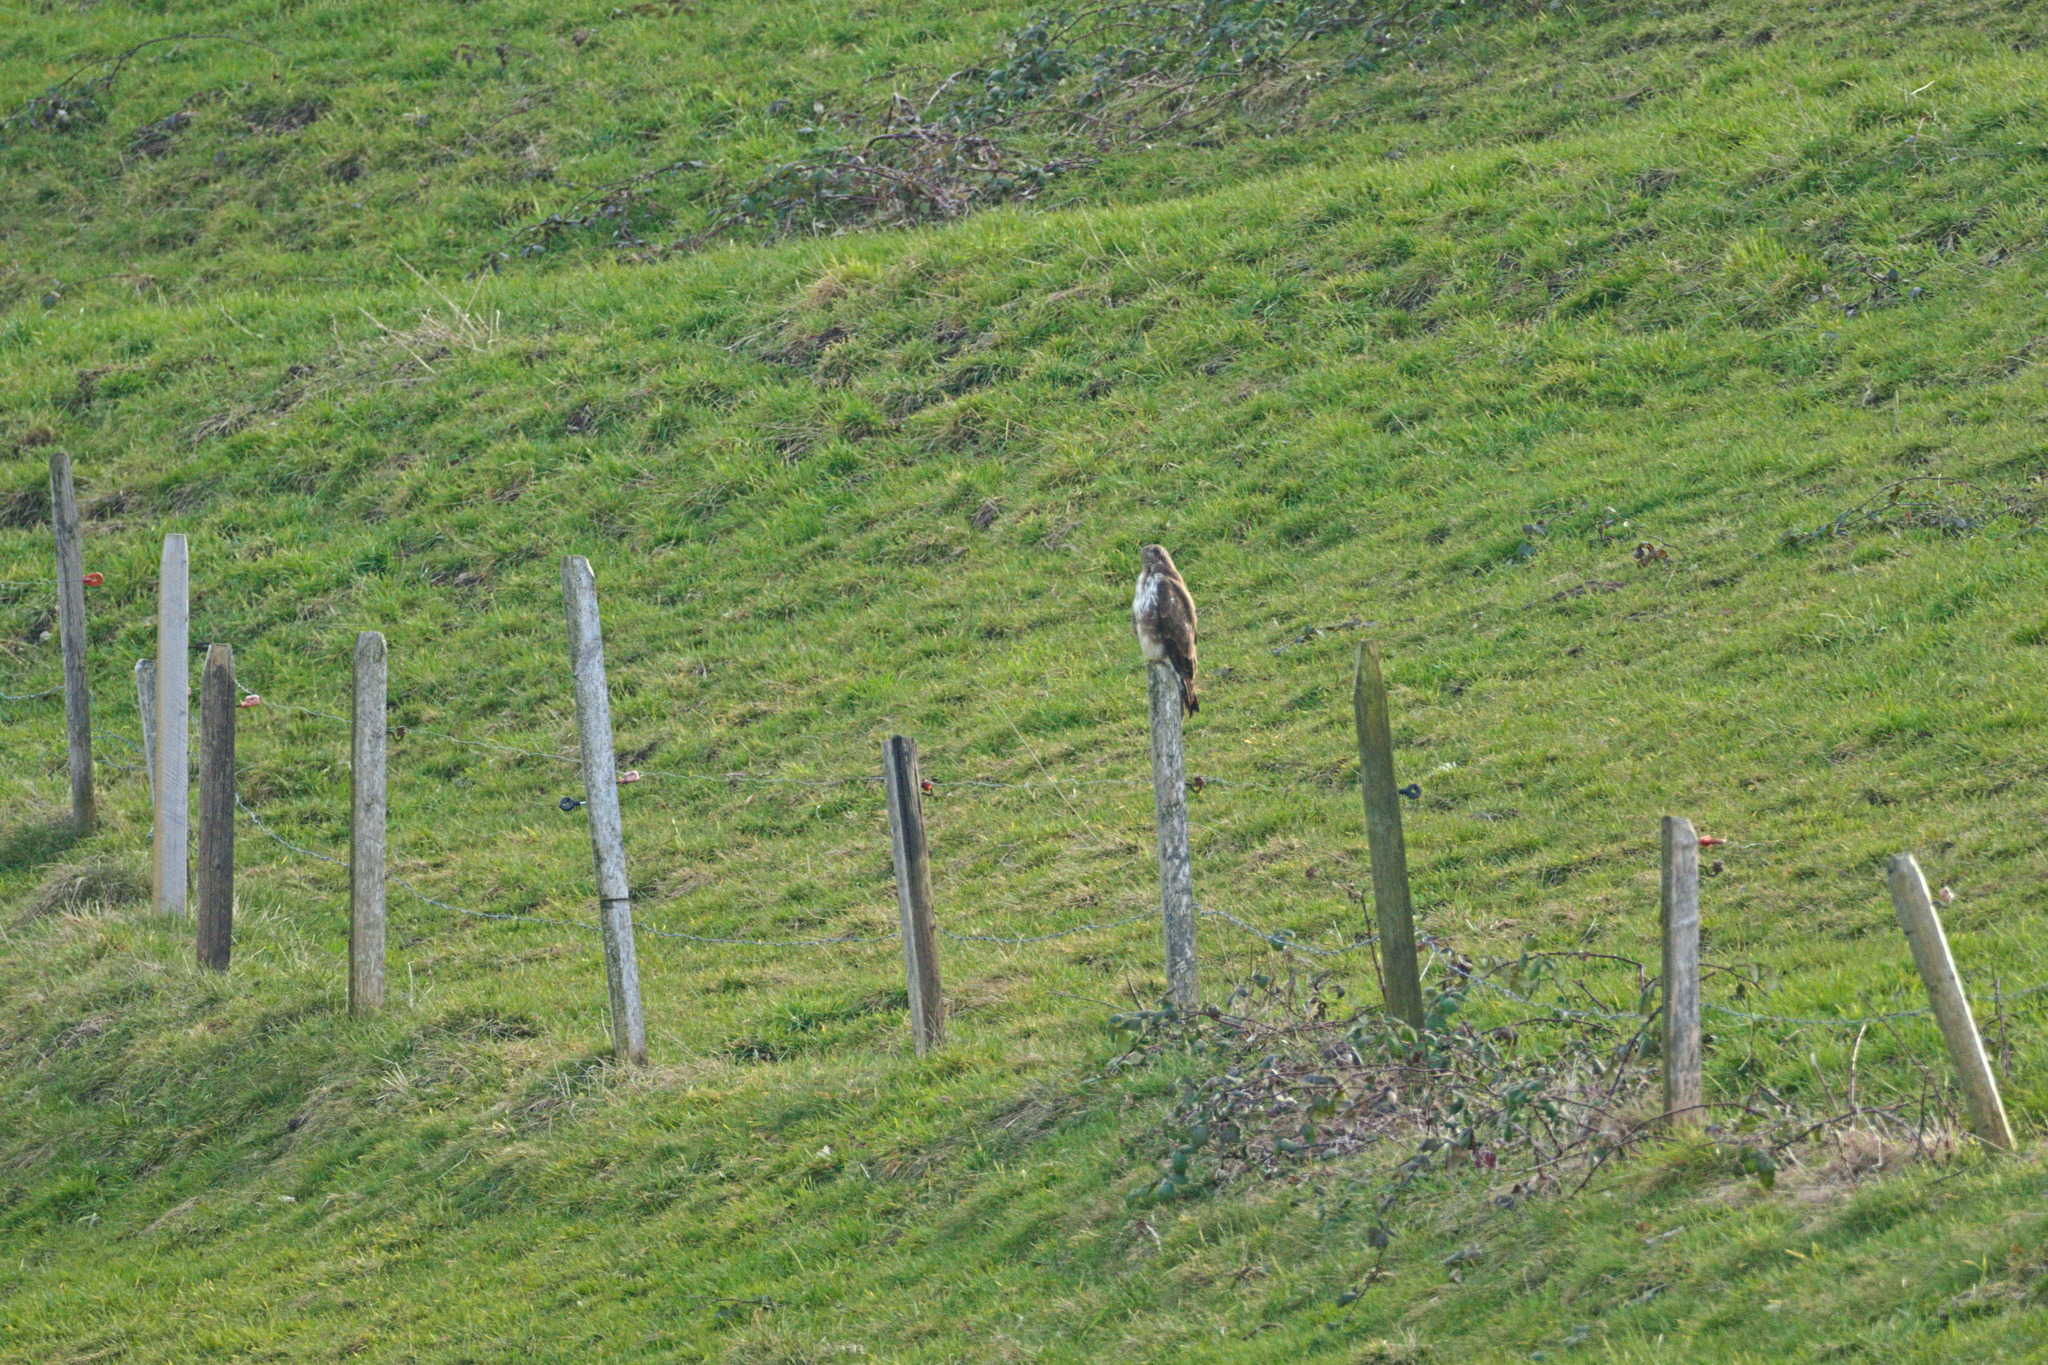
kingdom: Animalia
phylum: Chordata
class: Aves
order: Accipitriformes
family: Accipitridae
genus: Buteo
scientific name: Buteo buteo
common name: Common buzzard
